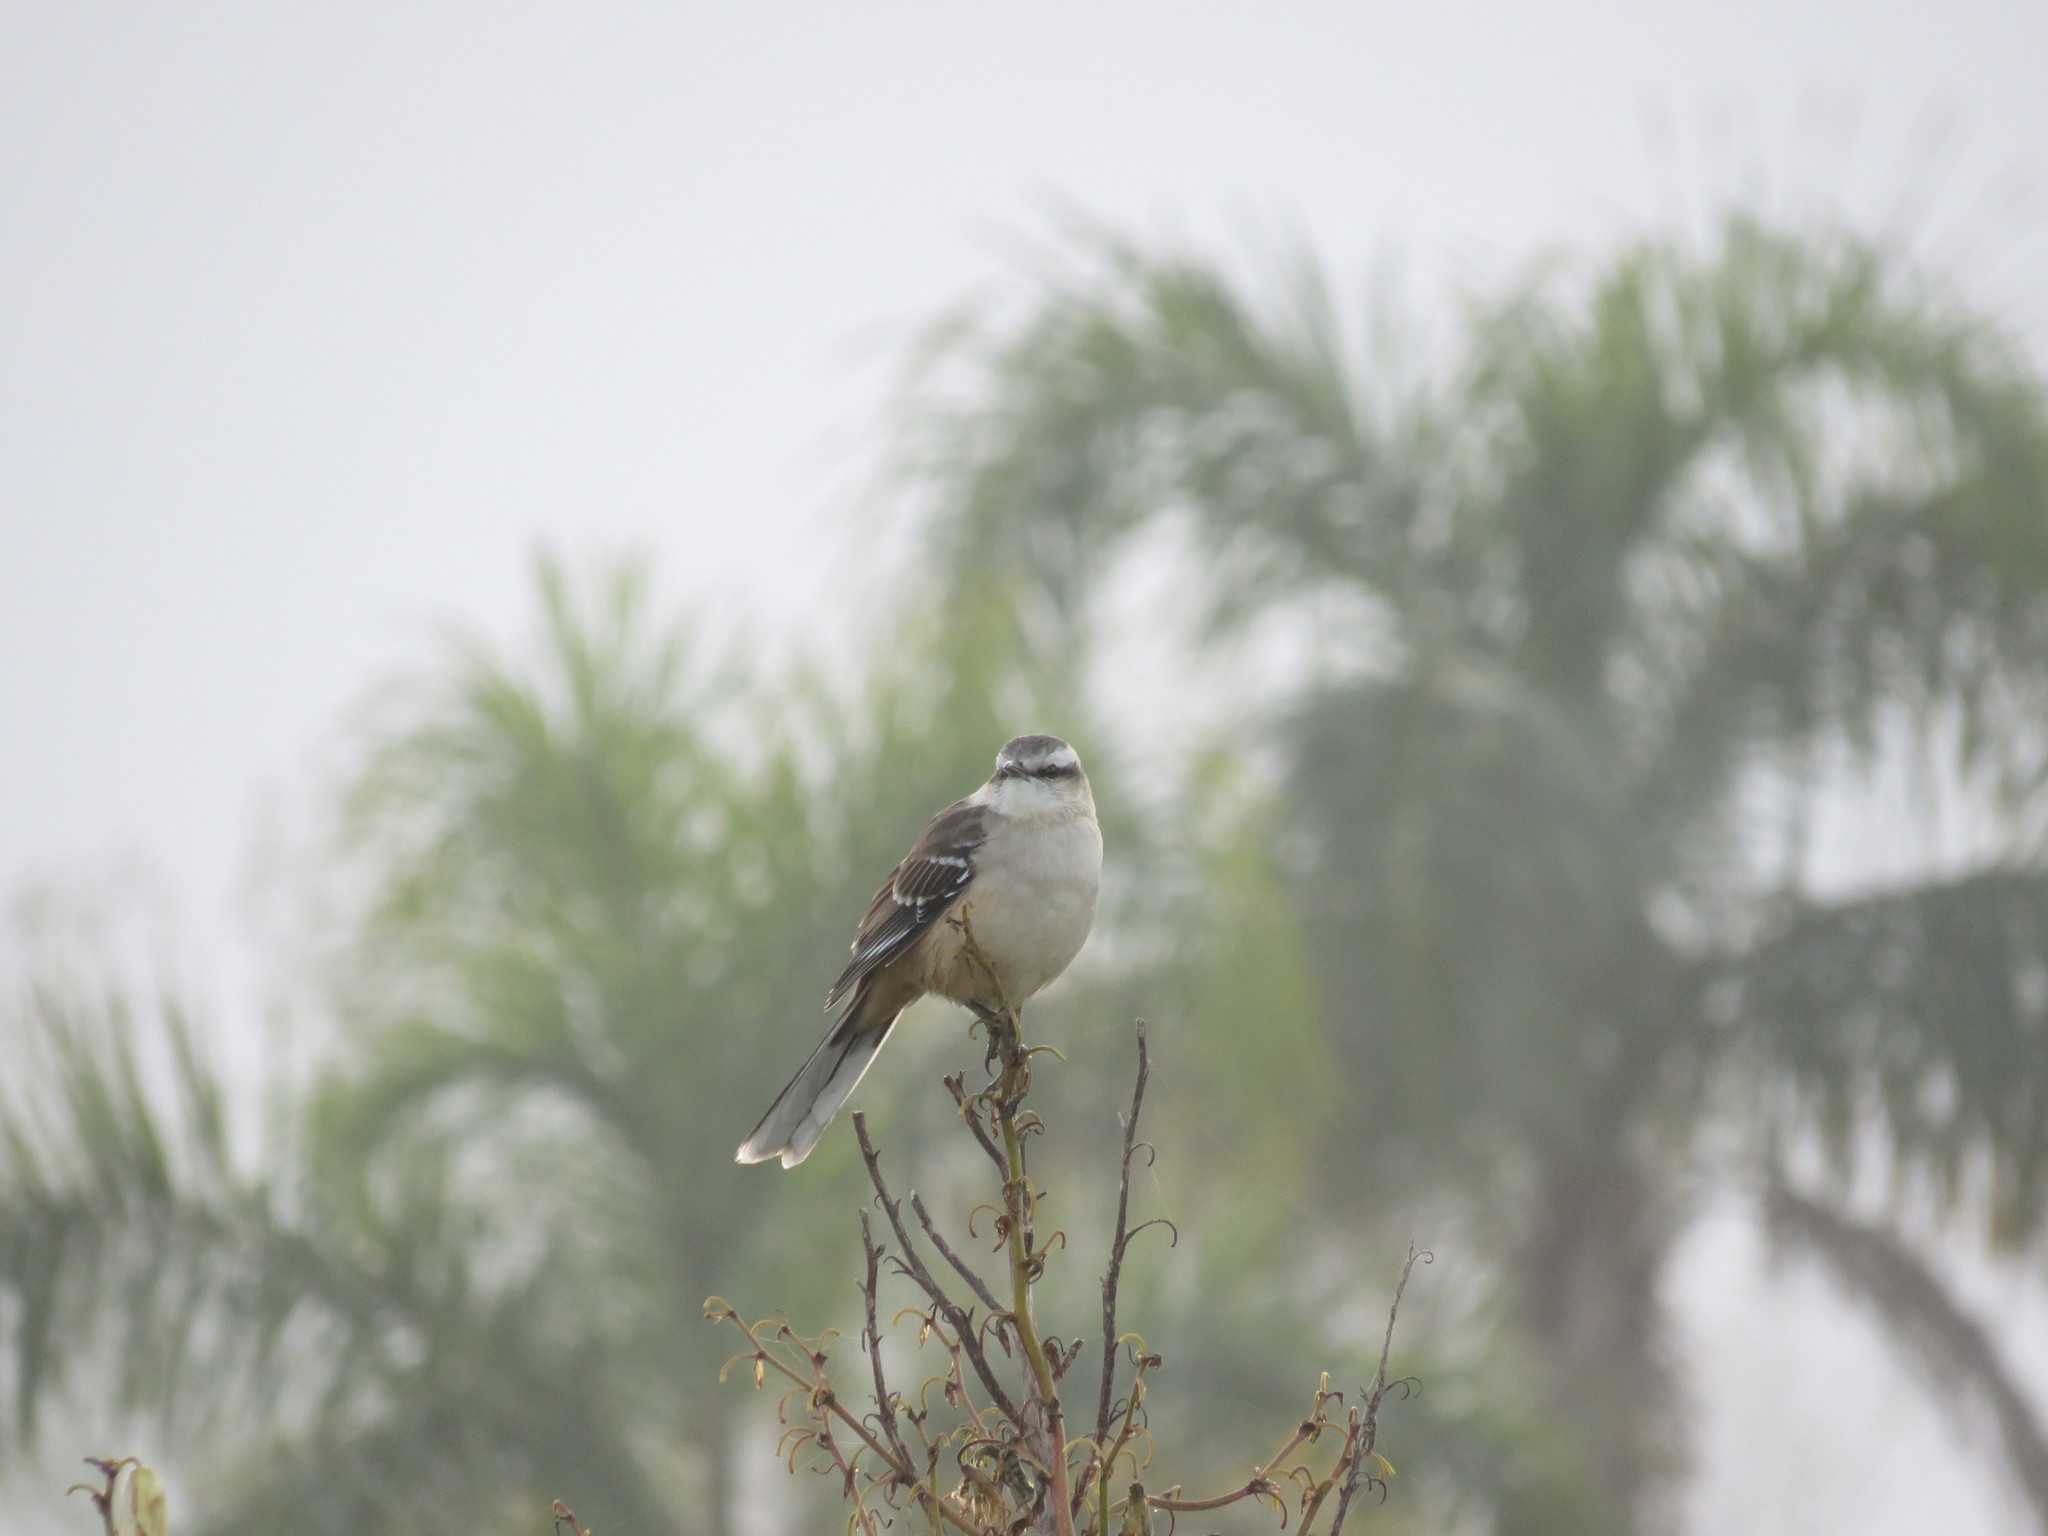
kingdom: Animalia
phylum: Chordata
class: Aves
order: Passeriformes
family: Mimidae
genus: Mimus
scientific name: Mimus saturninus
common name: Chalk-browed mockingbird
